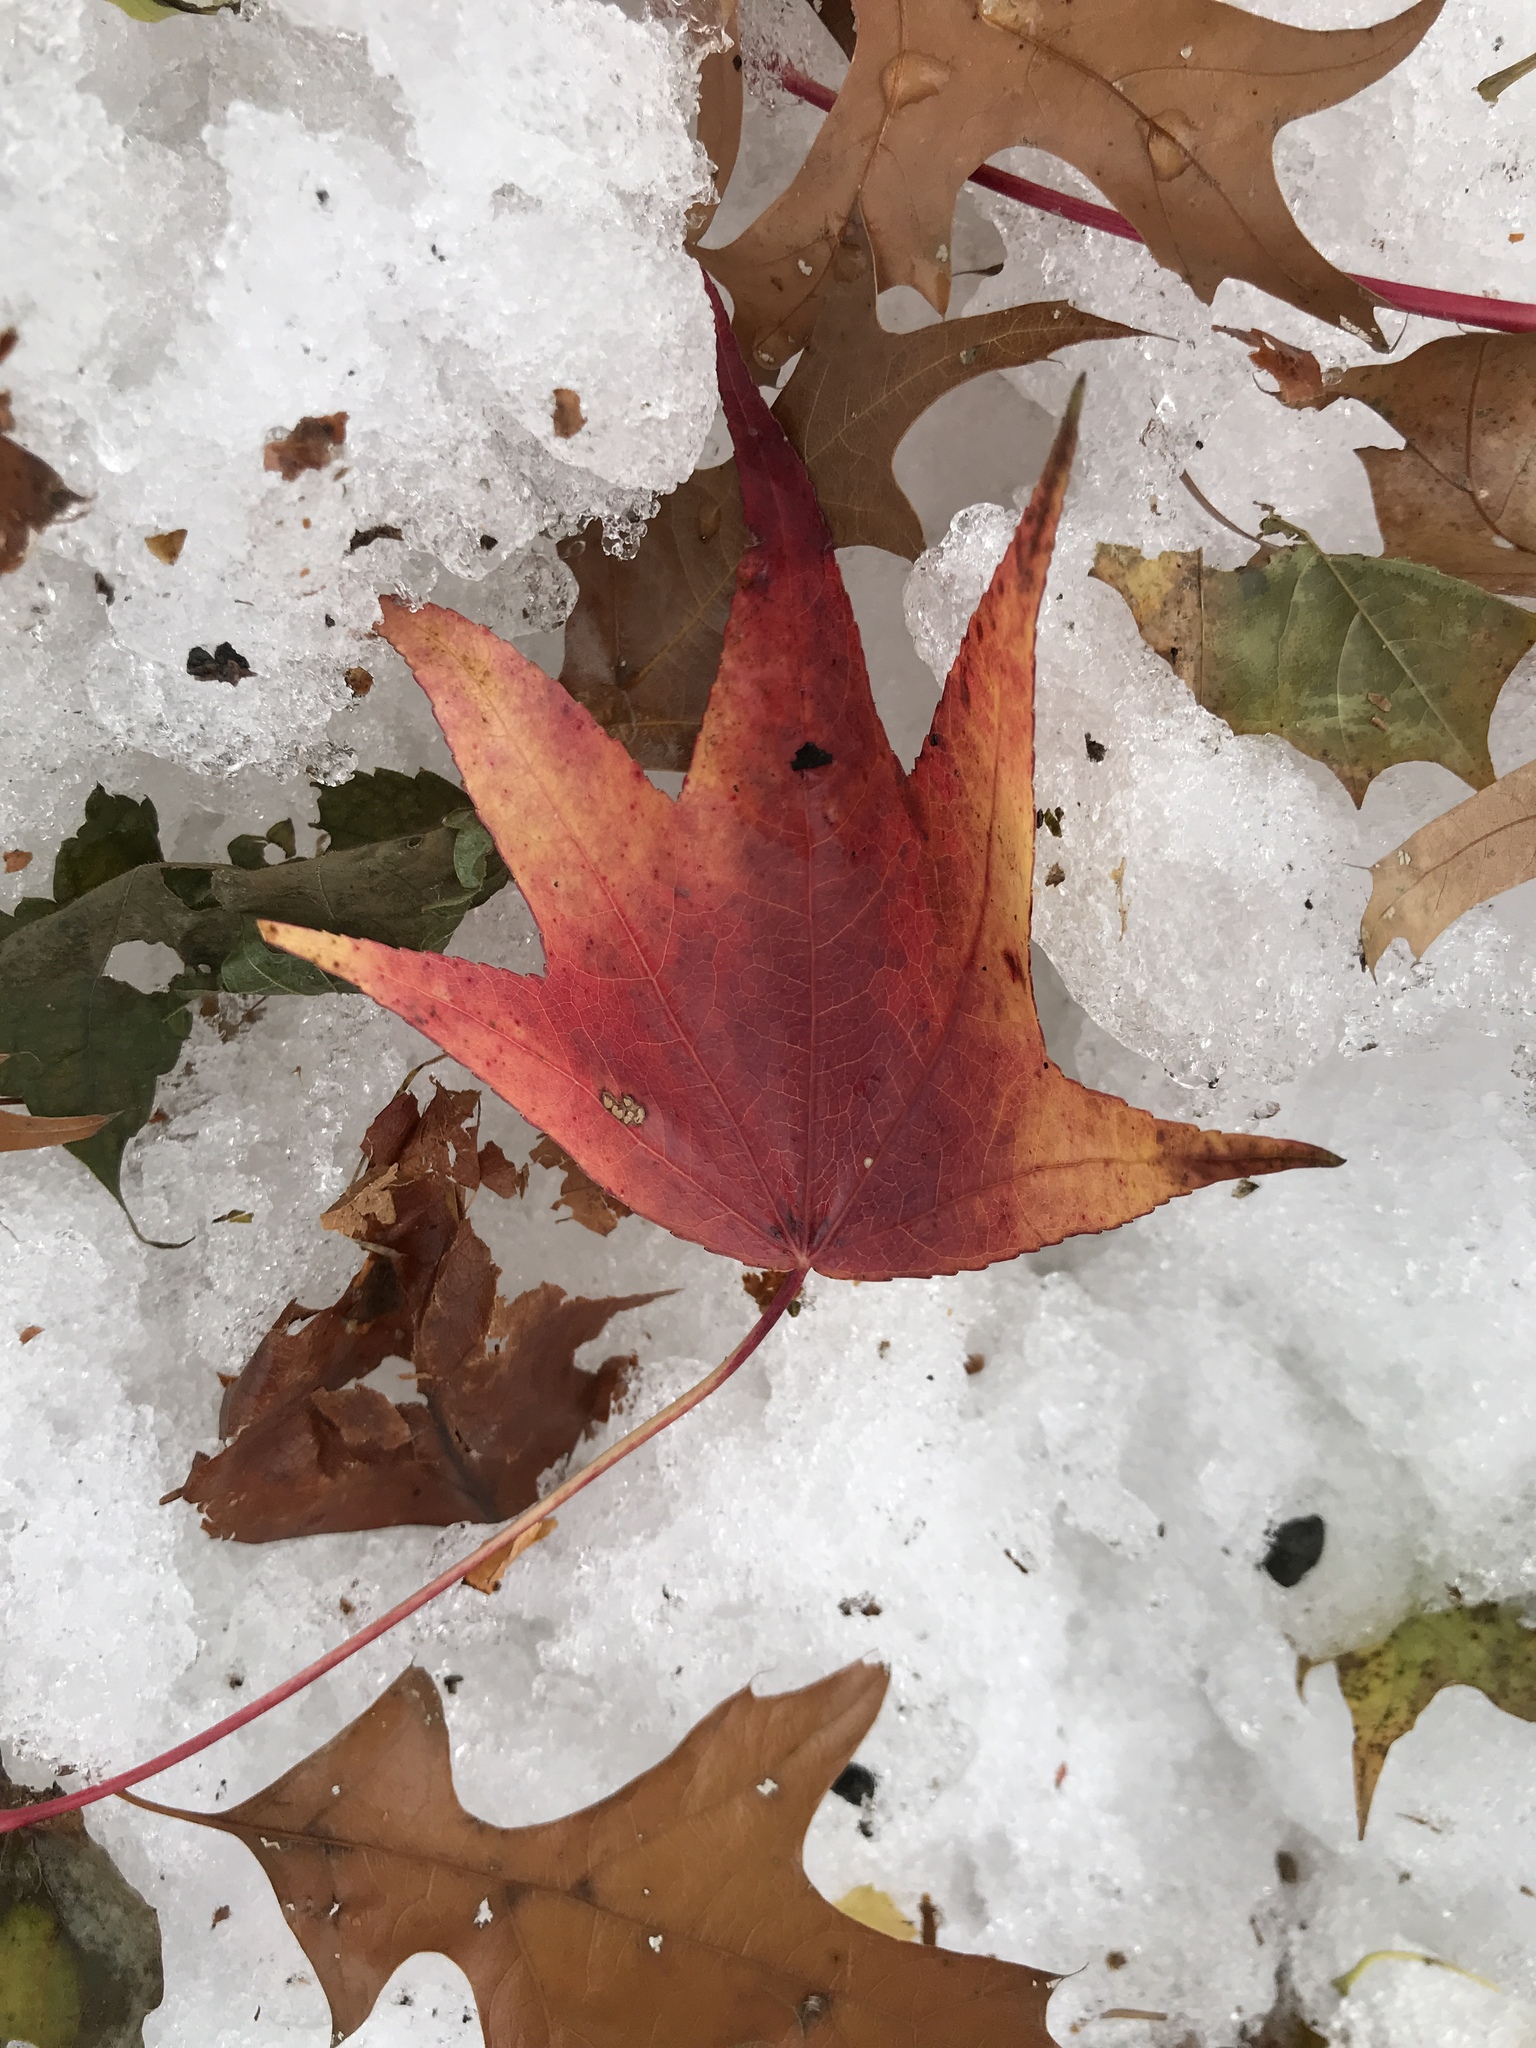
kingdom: Plantae
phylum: Tracheophyta
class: Magnoliopsida
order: Saxifragales
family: Altingiaceae
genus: Liquidambar
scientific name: Liquidambar styraciflua
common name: Sweet gum
